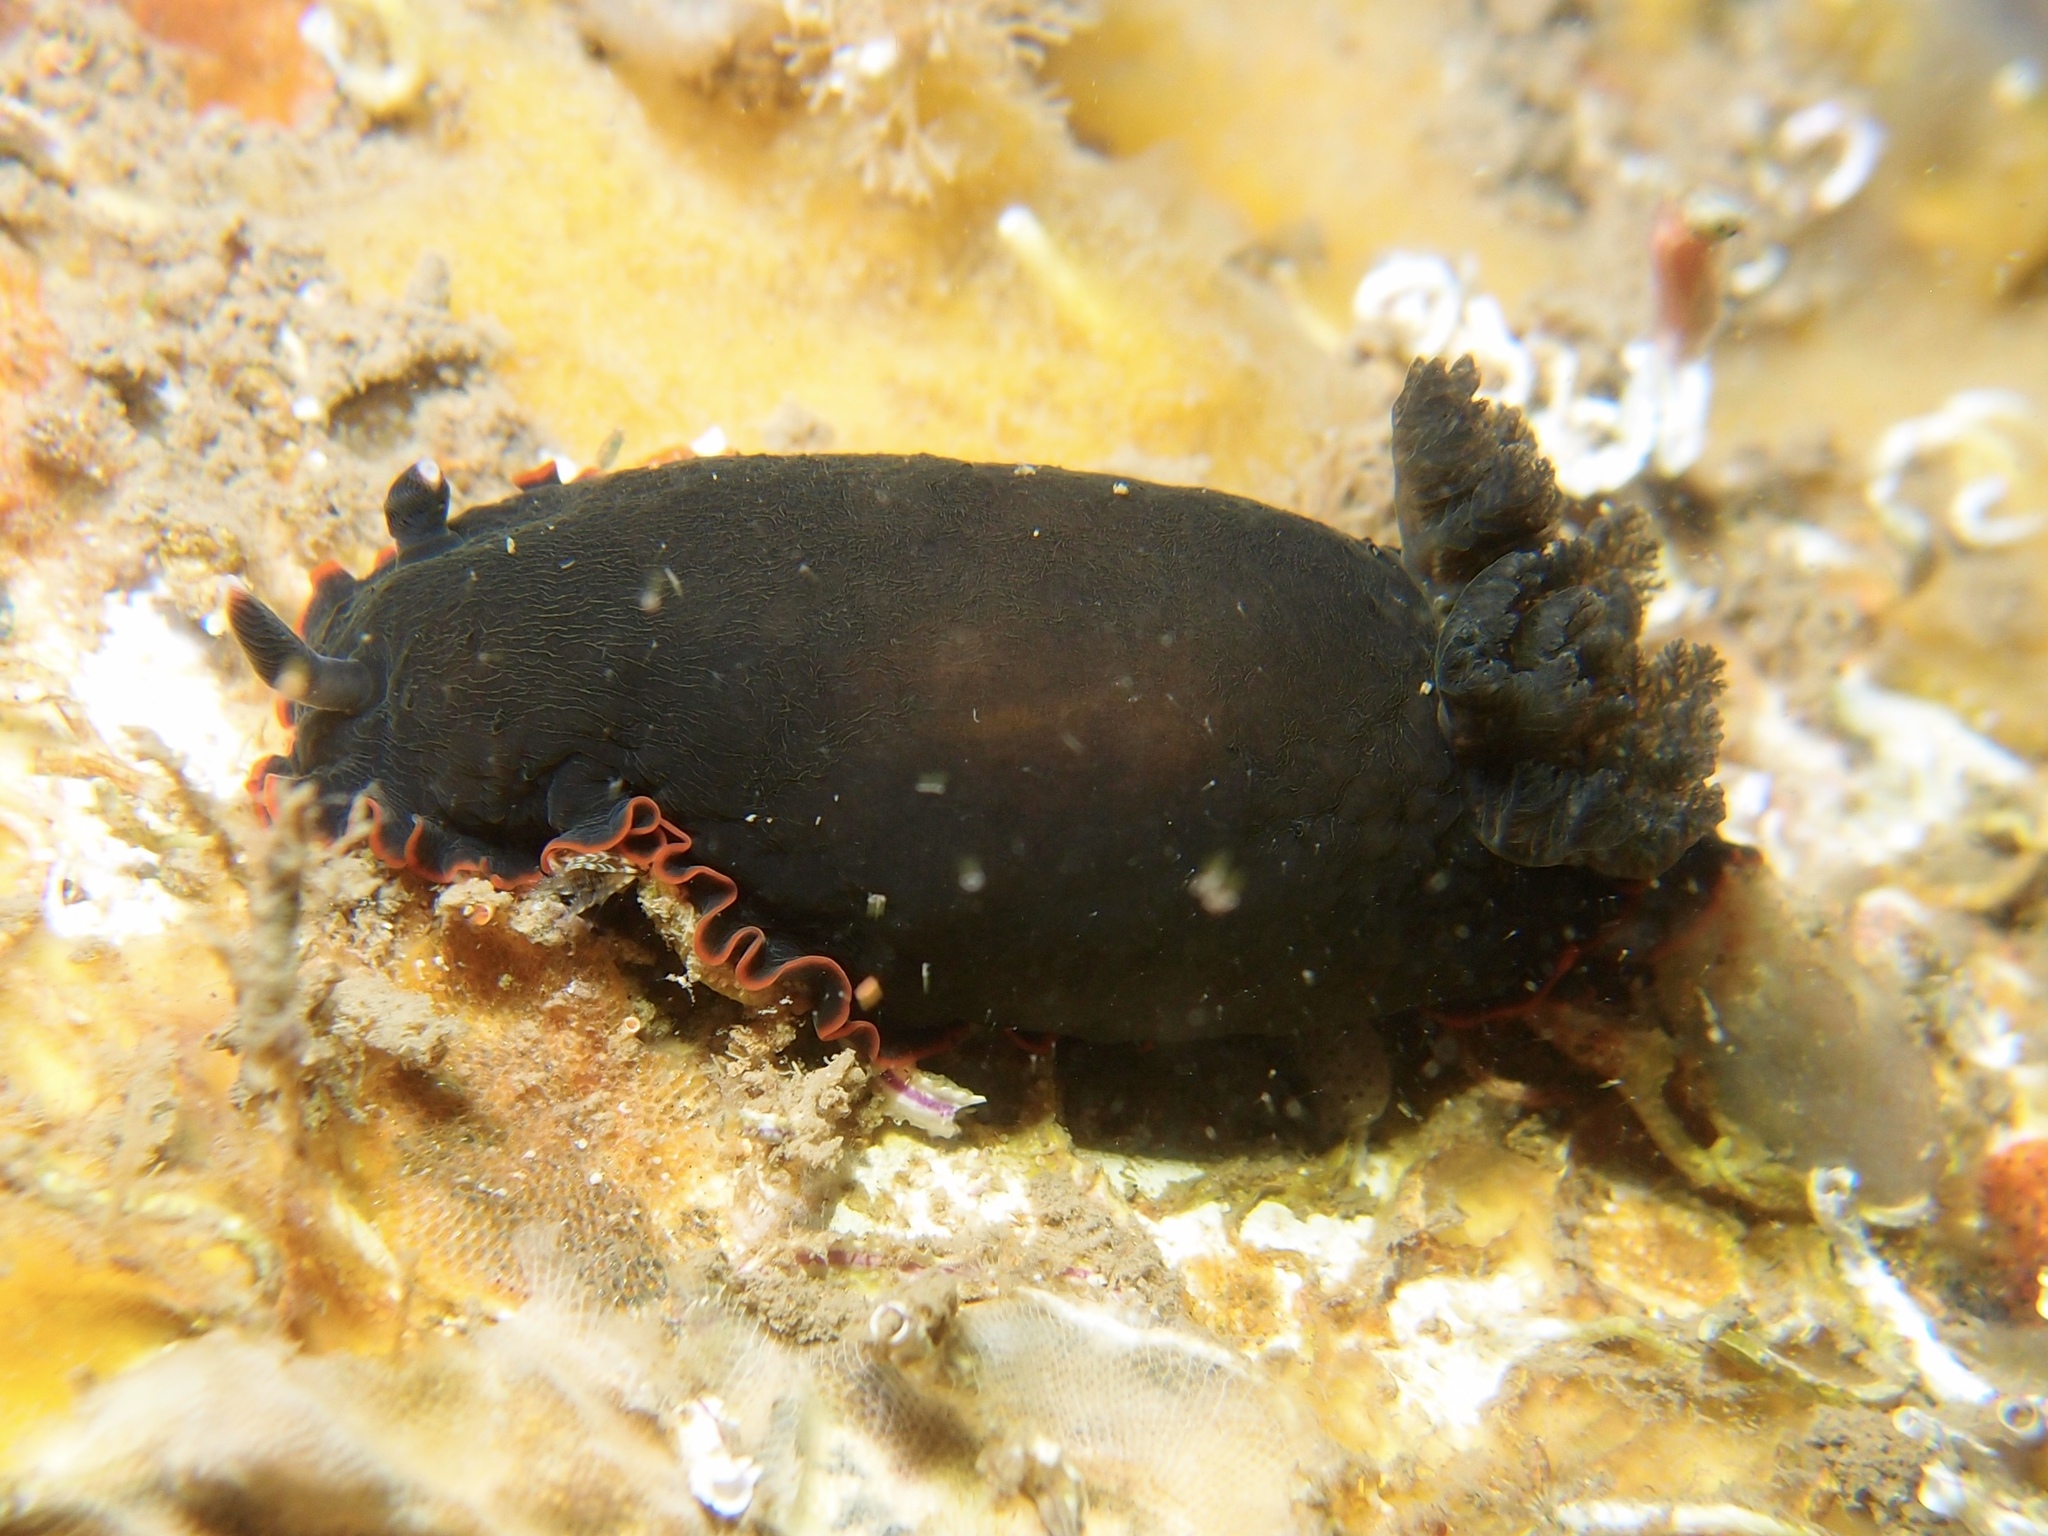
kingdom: Animalia
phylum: Mollusca
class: Gastropoda
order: Nudibranchia
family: Dendrodorididae
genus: Dendrodoris
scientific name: Dendrodoris arborescens
